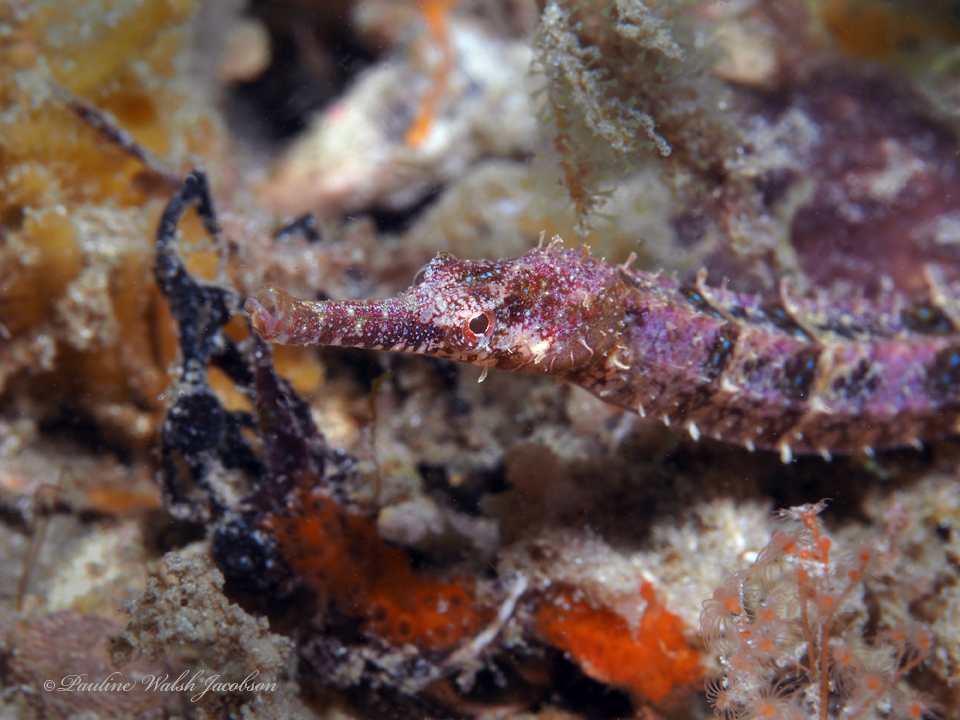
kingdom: Animalia
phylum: Chordata
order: Syngnathiformes
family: Syngnathidae
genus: Cosmocampus
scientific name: Cosmocampus elucens
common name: Poey's pipefish
